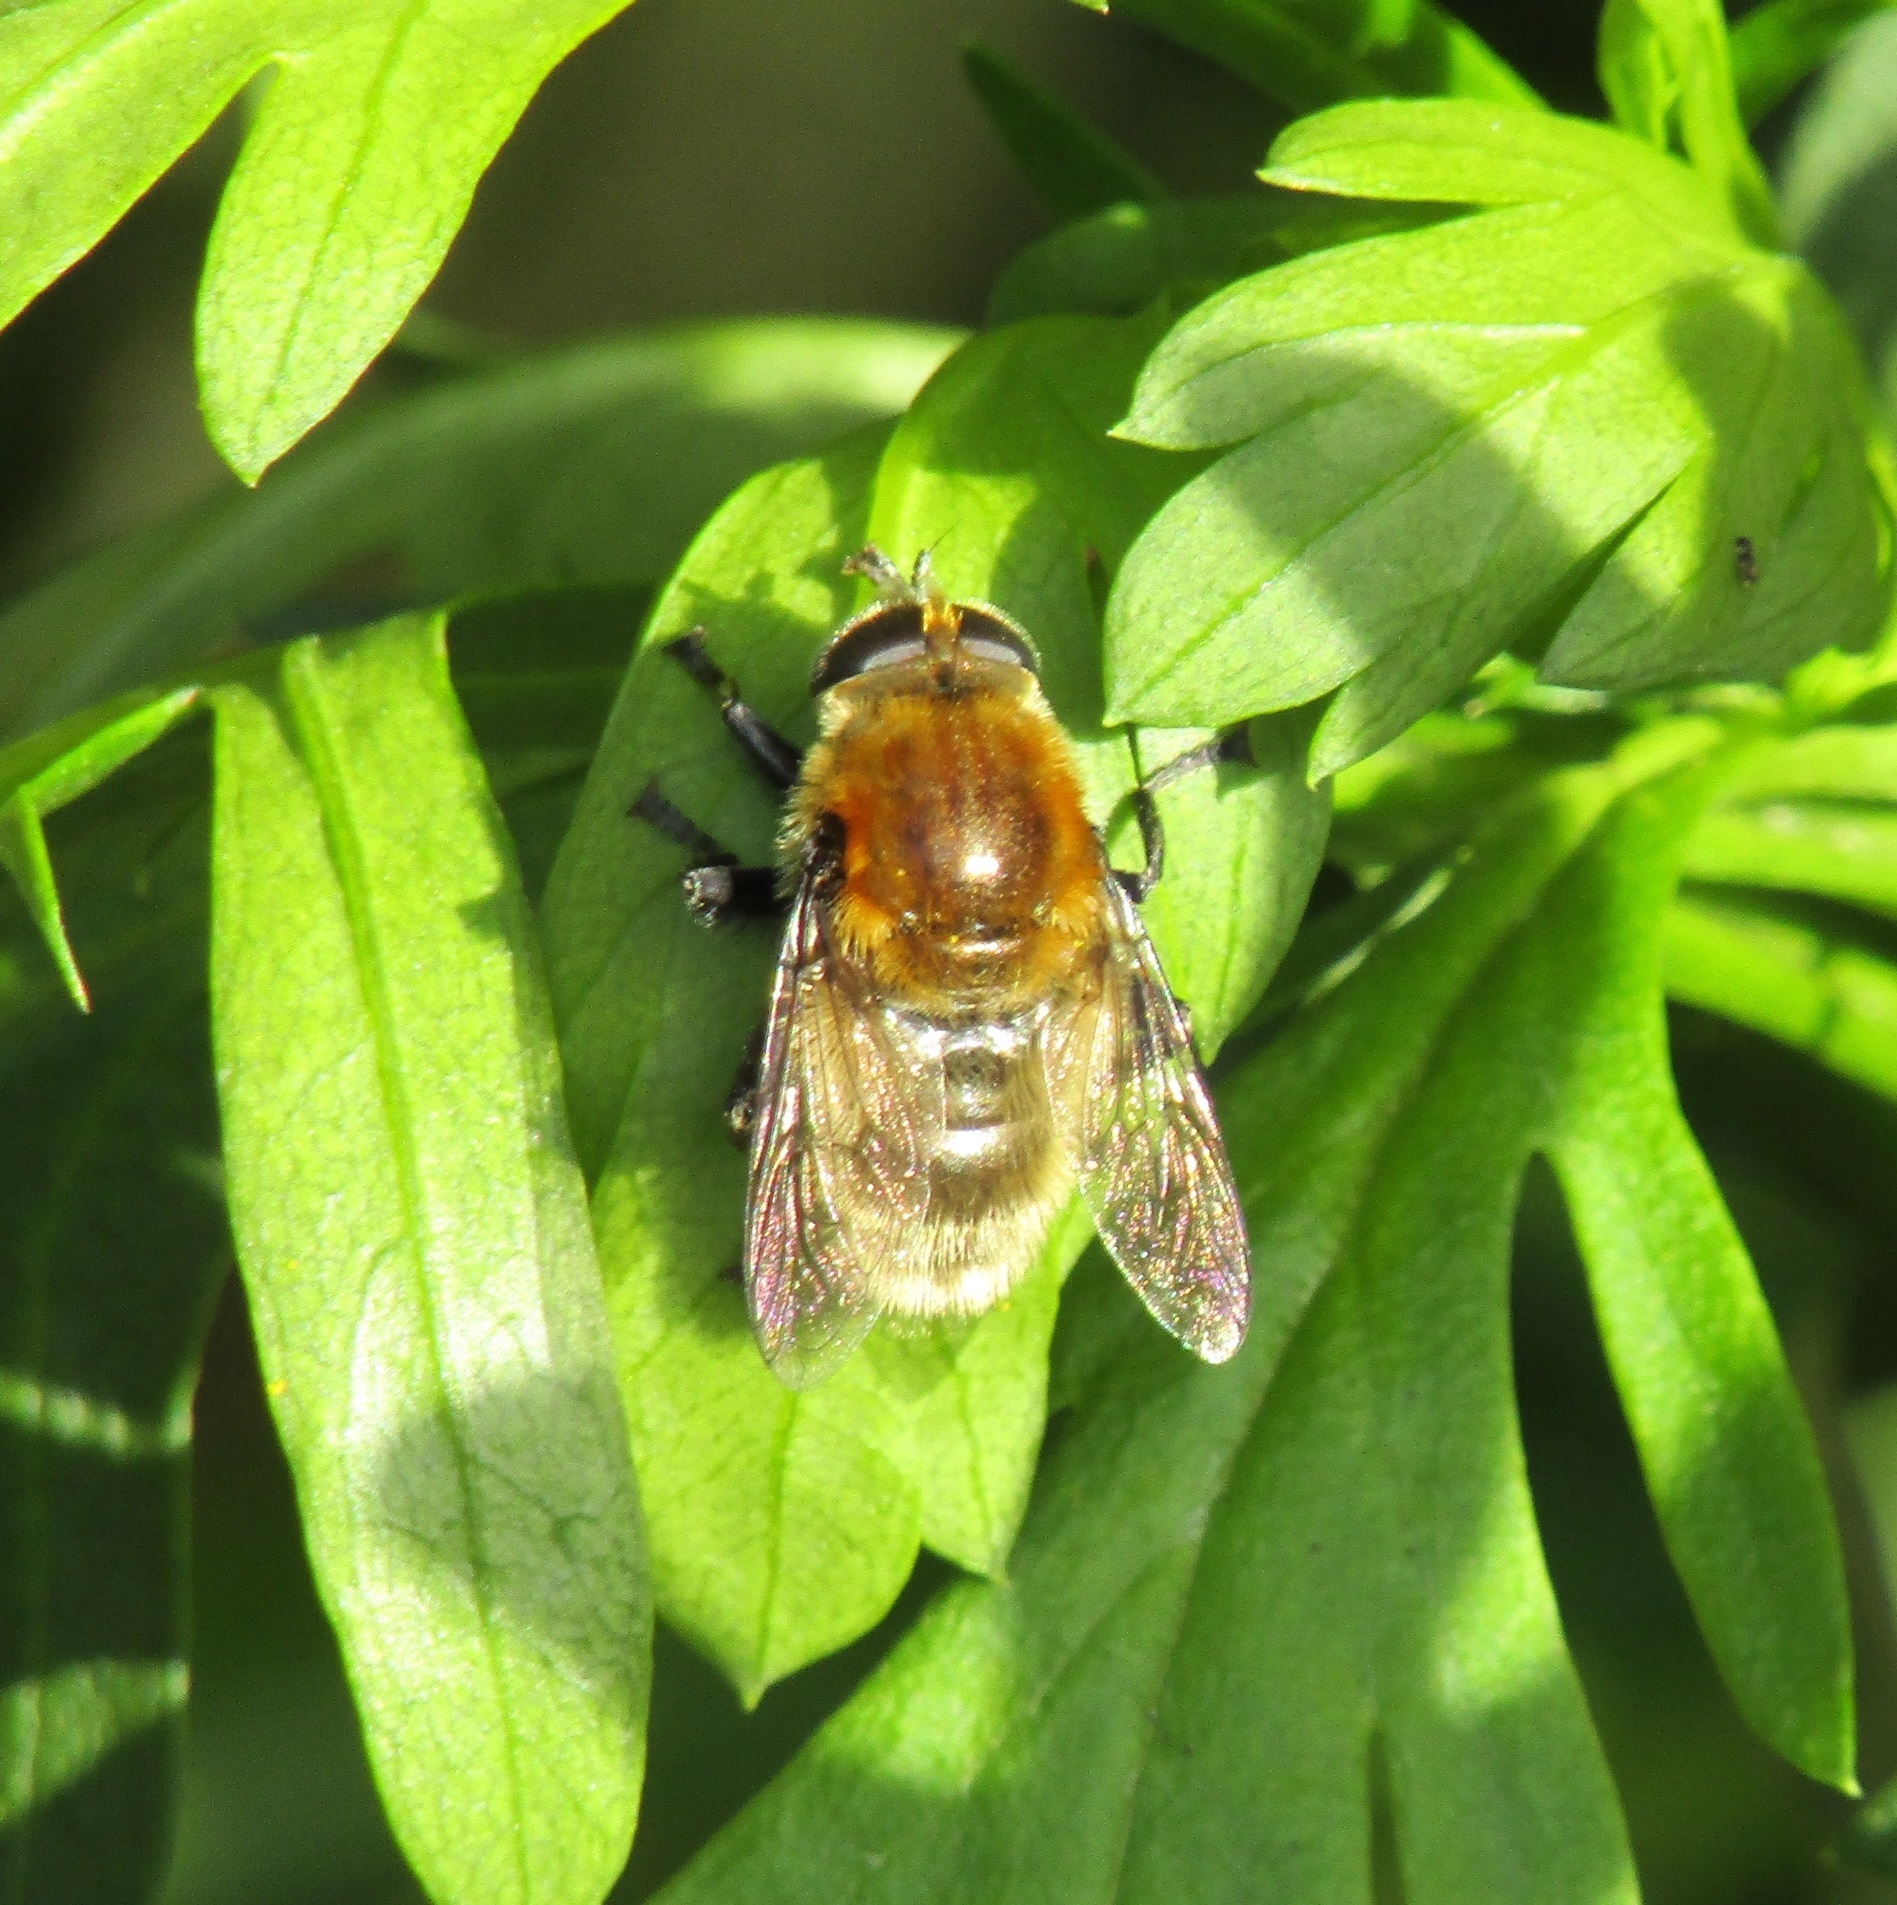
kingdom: Animalia
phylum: Arthropoda
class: Insecta
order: Diptera
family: Syrphidae
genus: Merodon
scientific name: Merodon equestris
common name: Greater bulb-fly
